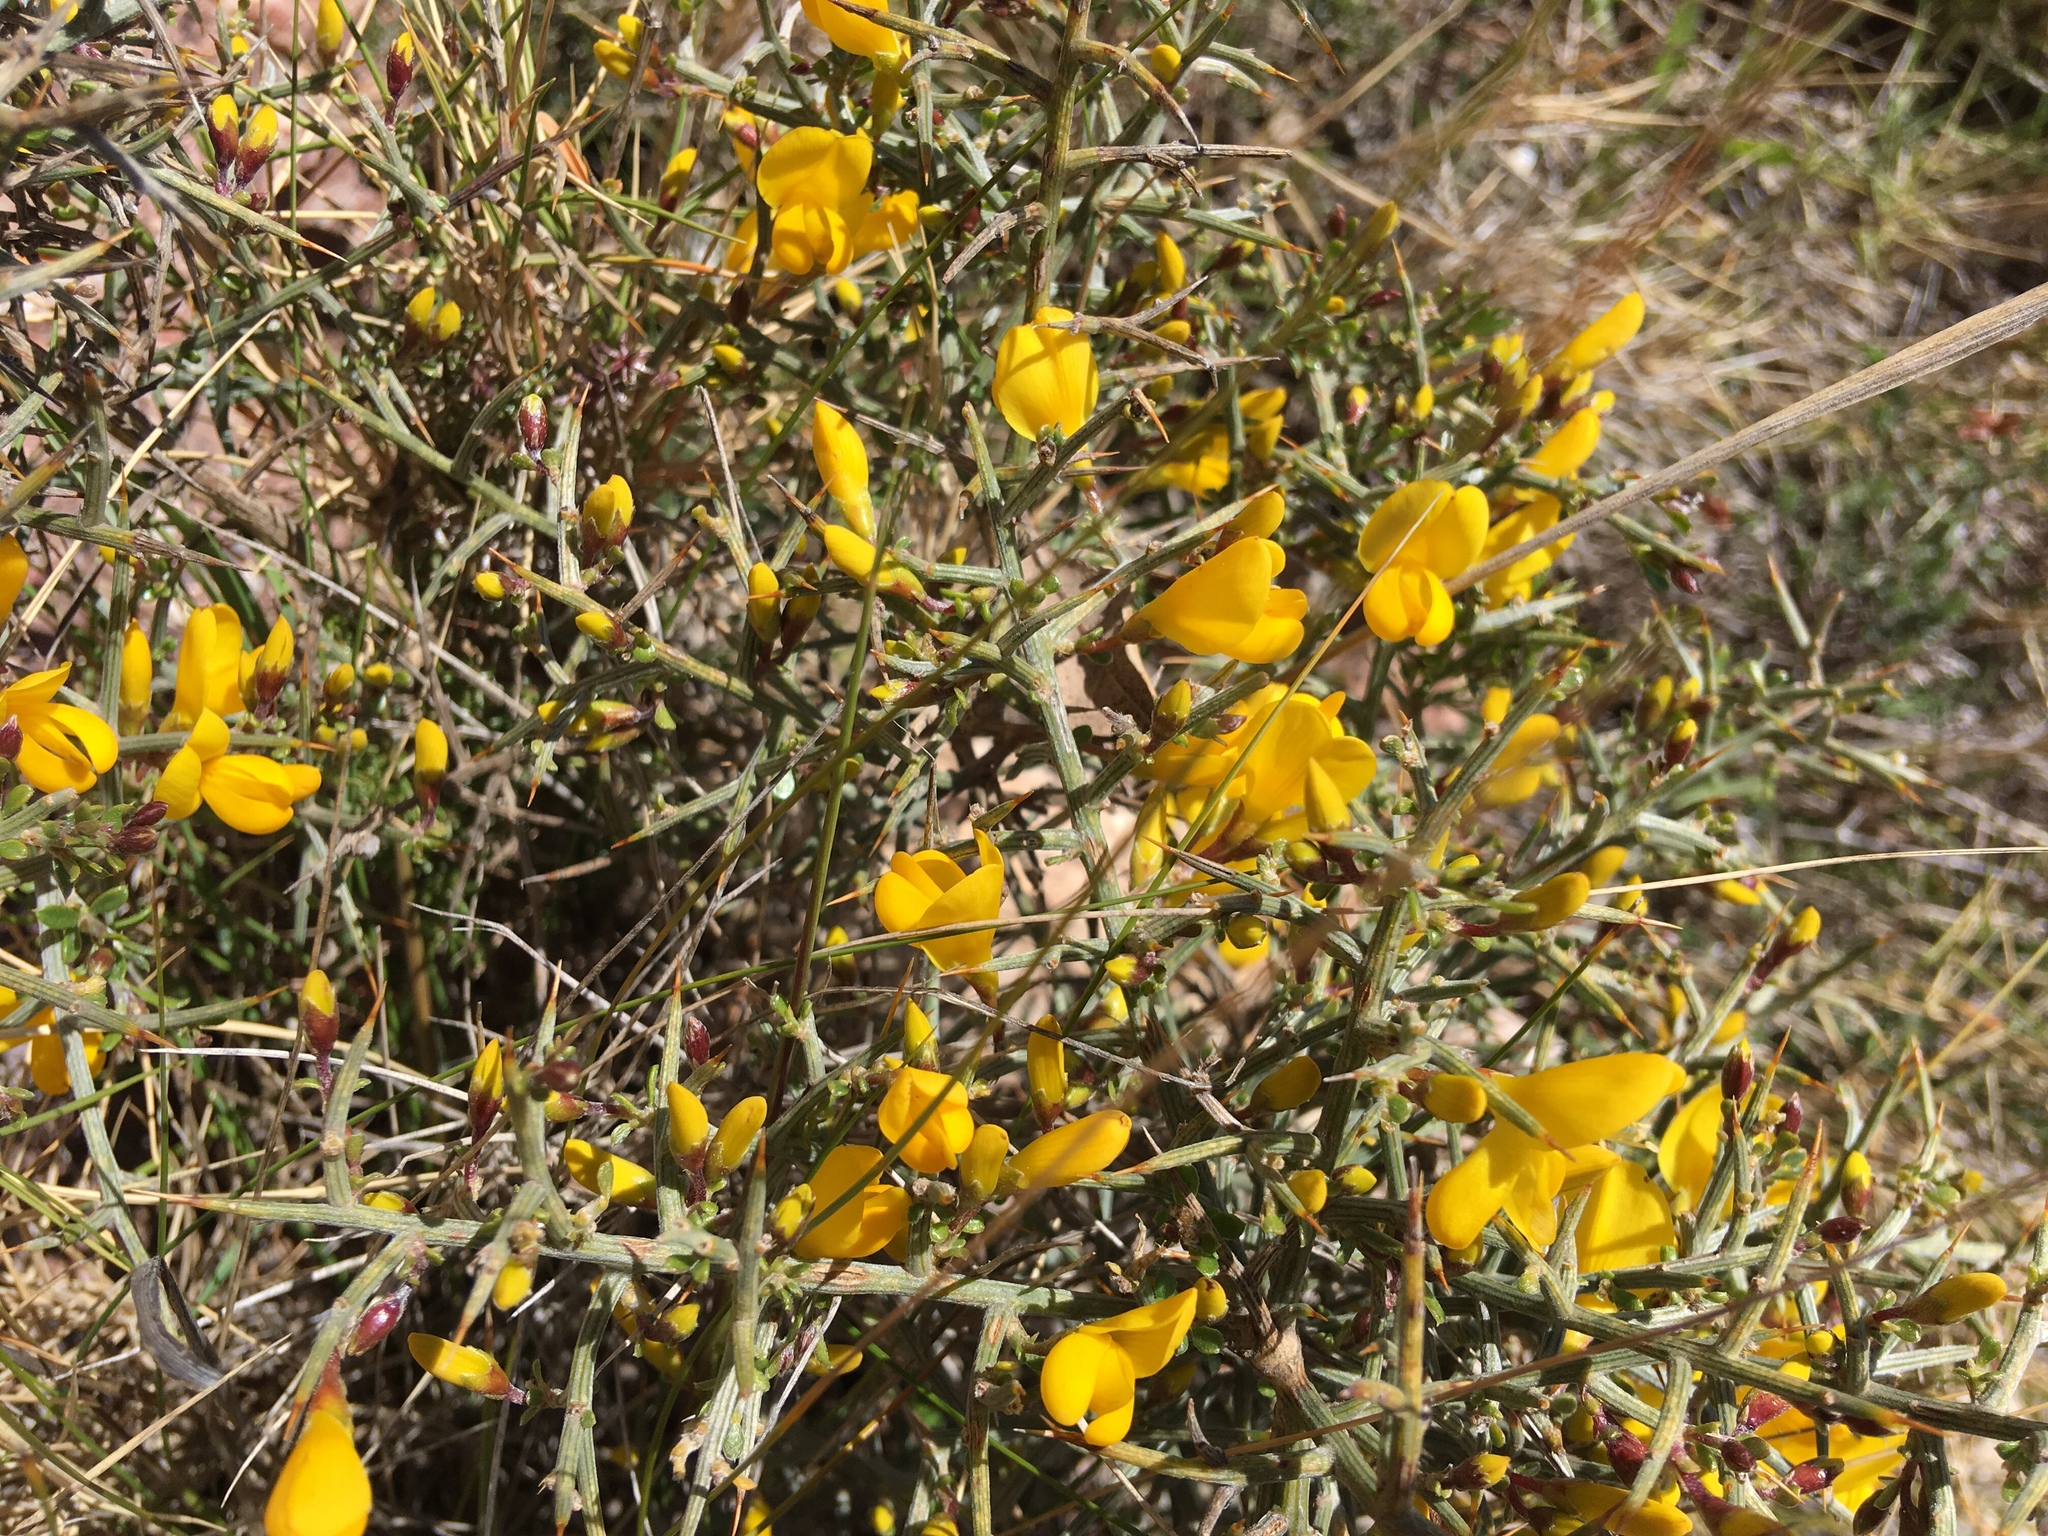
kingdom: Plantae
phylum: Tracheophyta
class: Magnoliopsida
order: Fabales
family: Fabaceae
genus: Genista
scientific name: Genista scorpius
